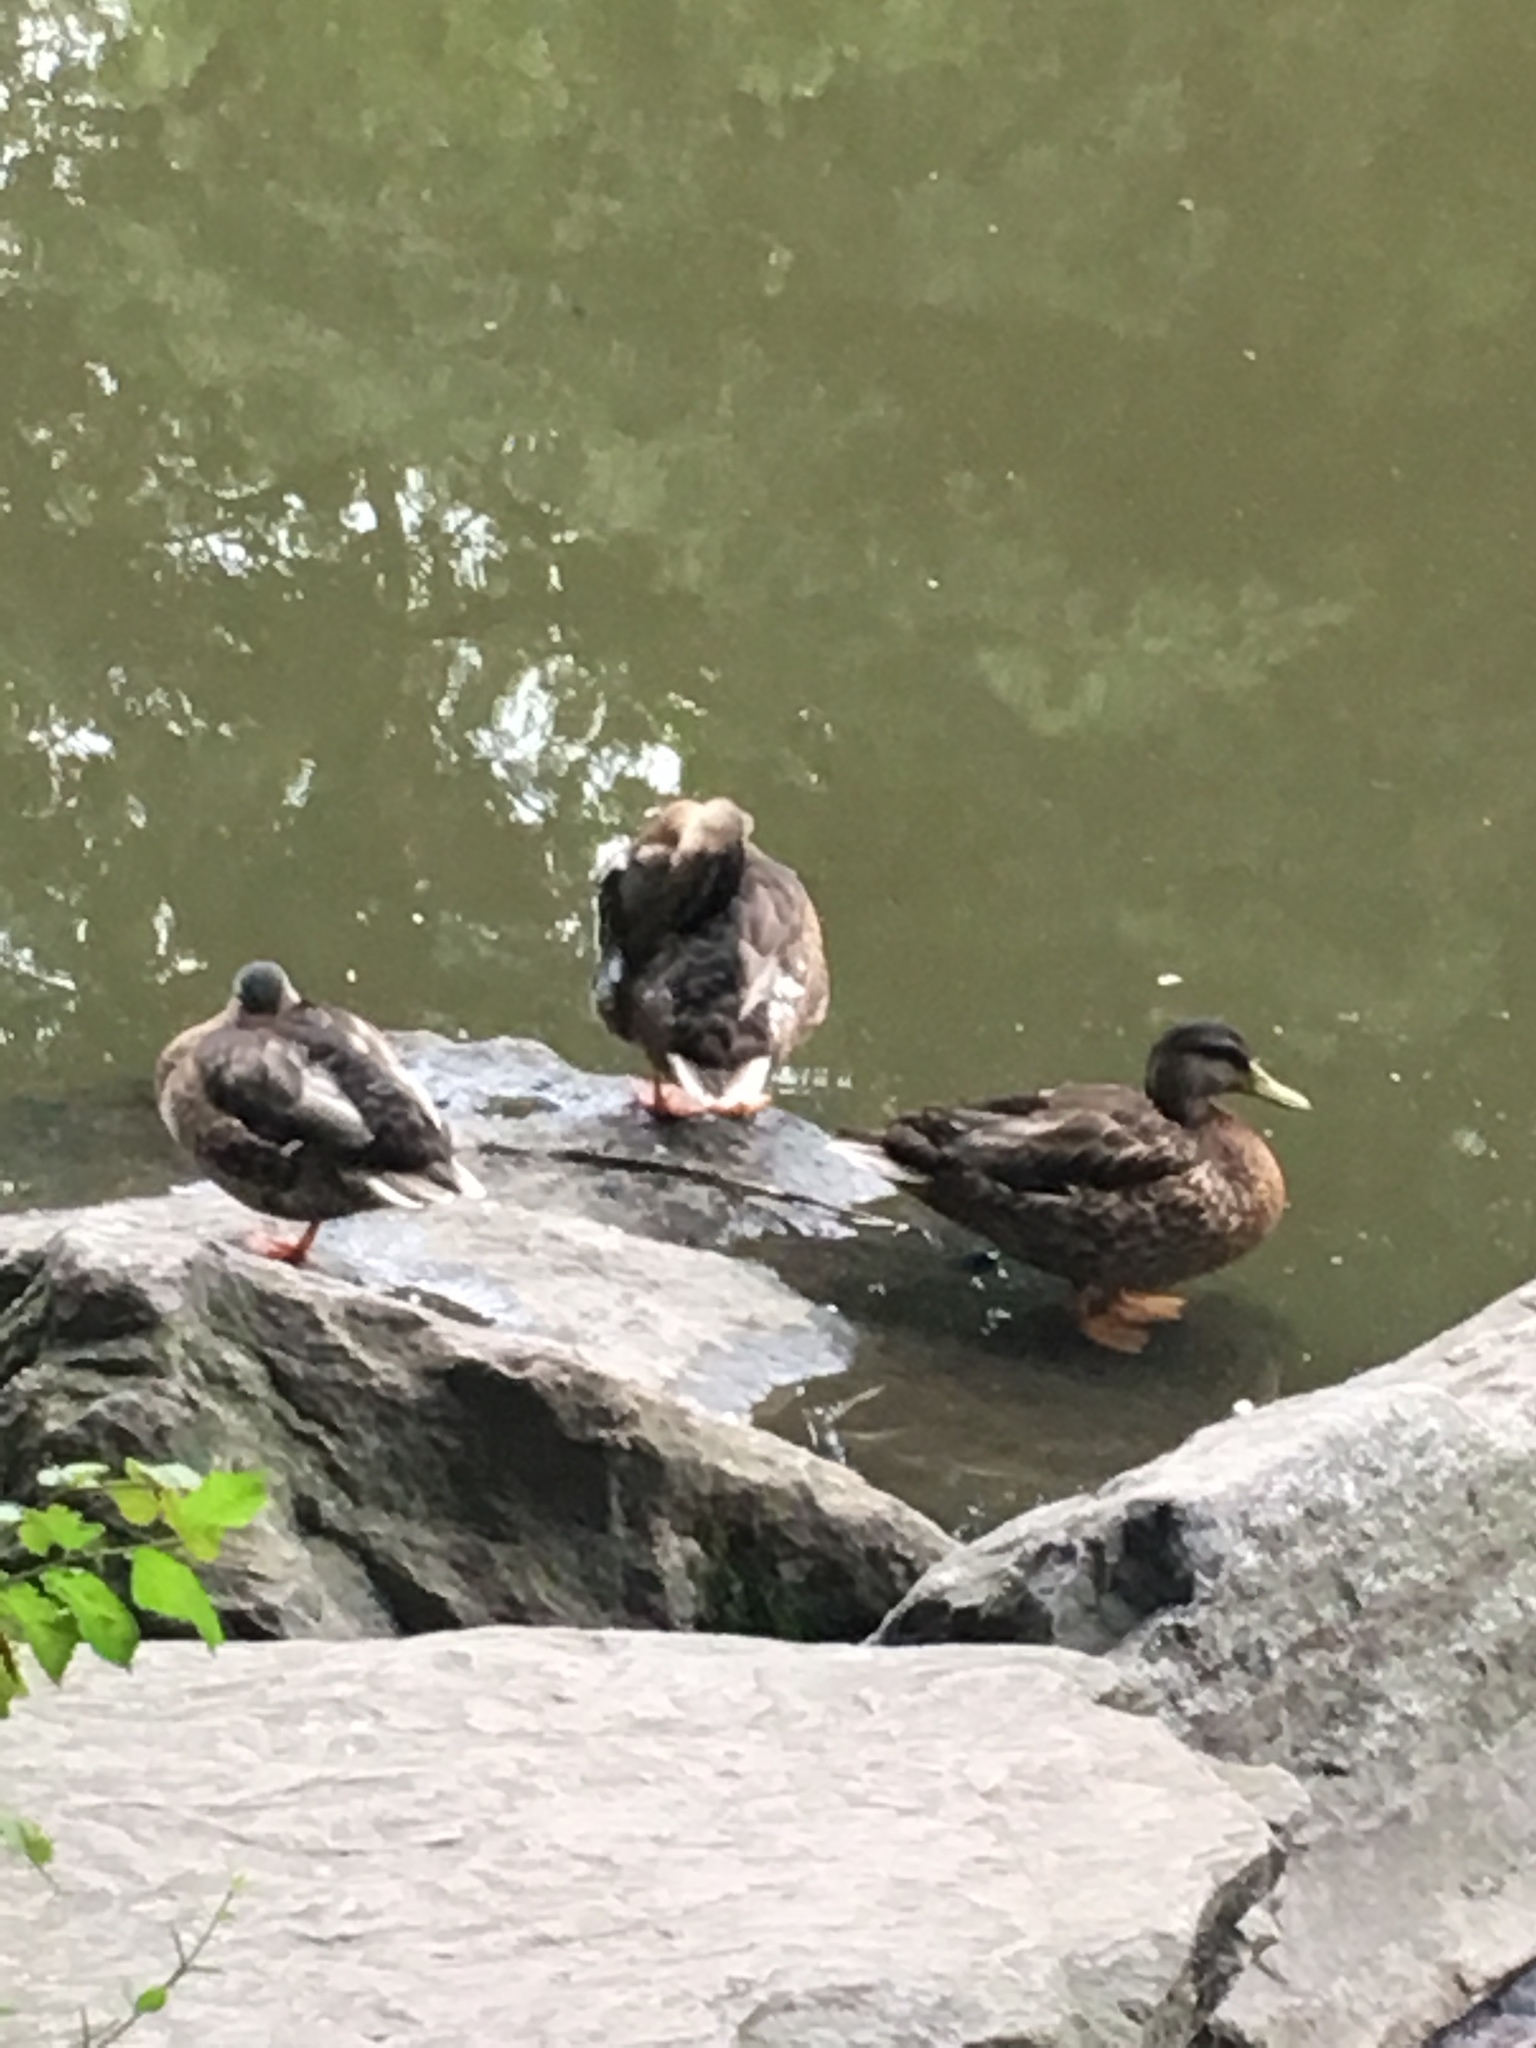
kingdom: Animalia
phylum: Chordata
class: Aves
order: Anseriformes
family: Anatidae
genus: Anas
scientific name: Anas platyrhynchos
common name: Mallard
